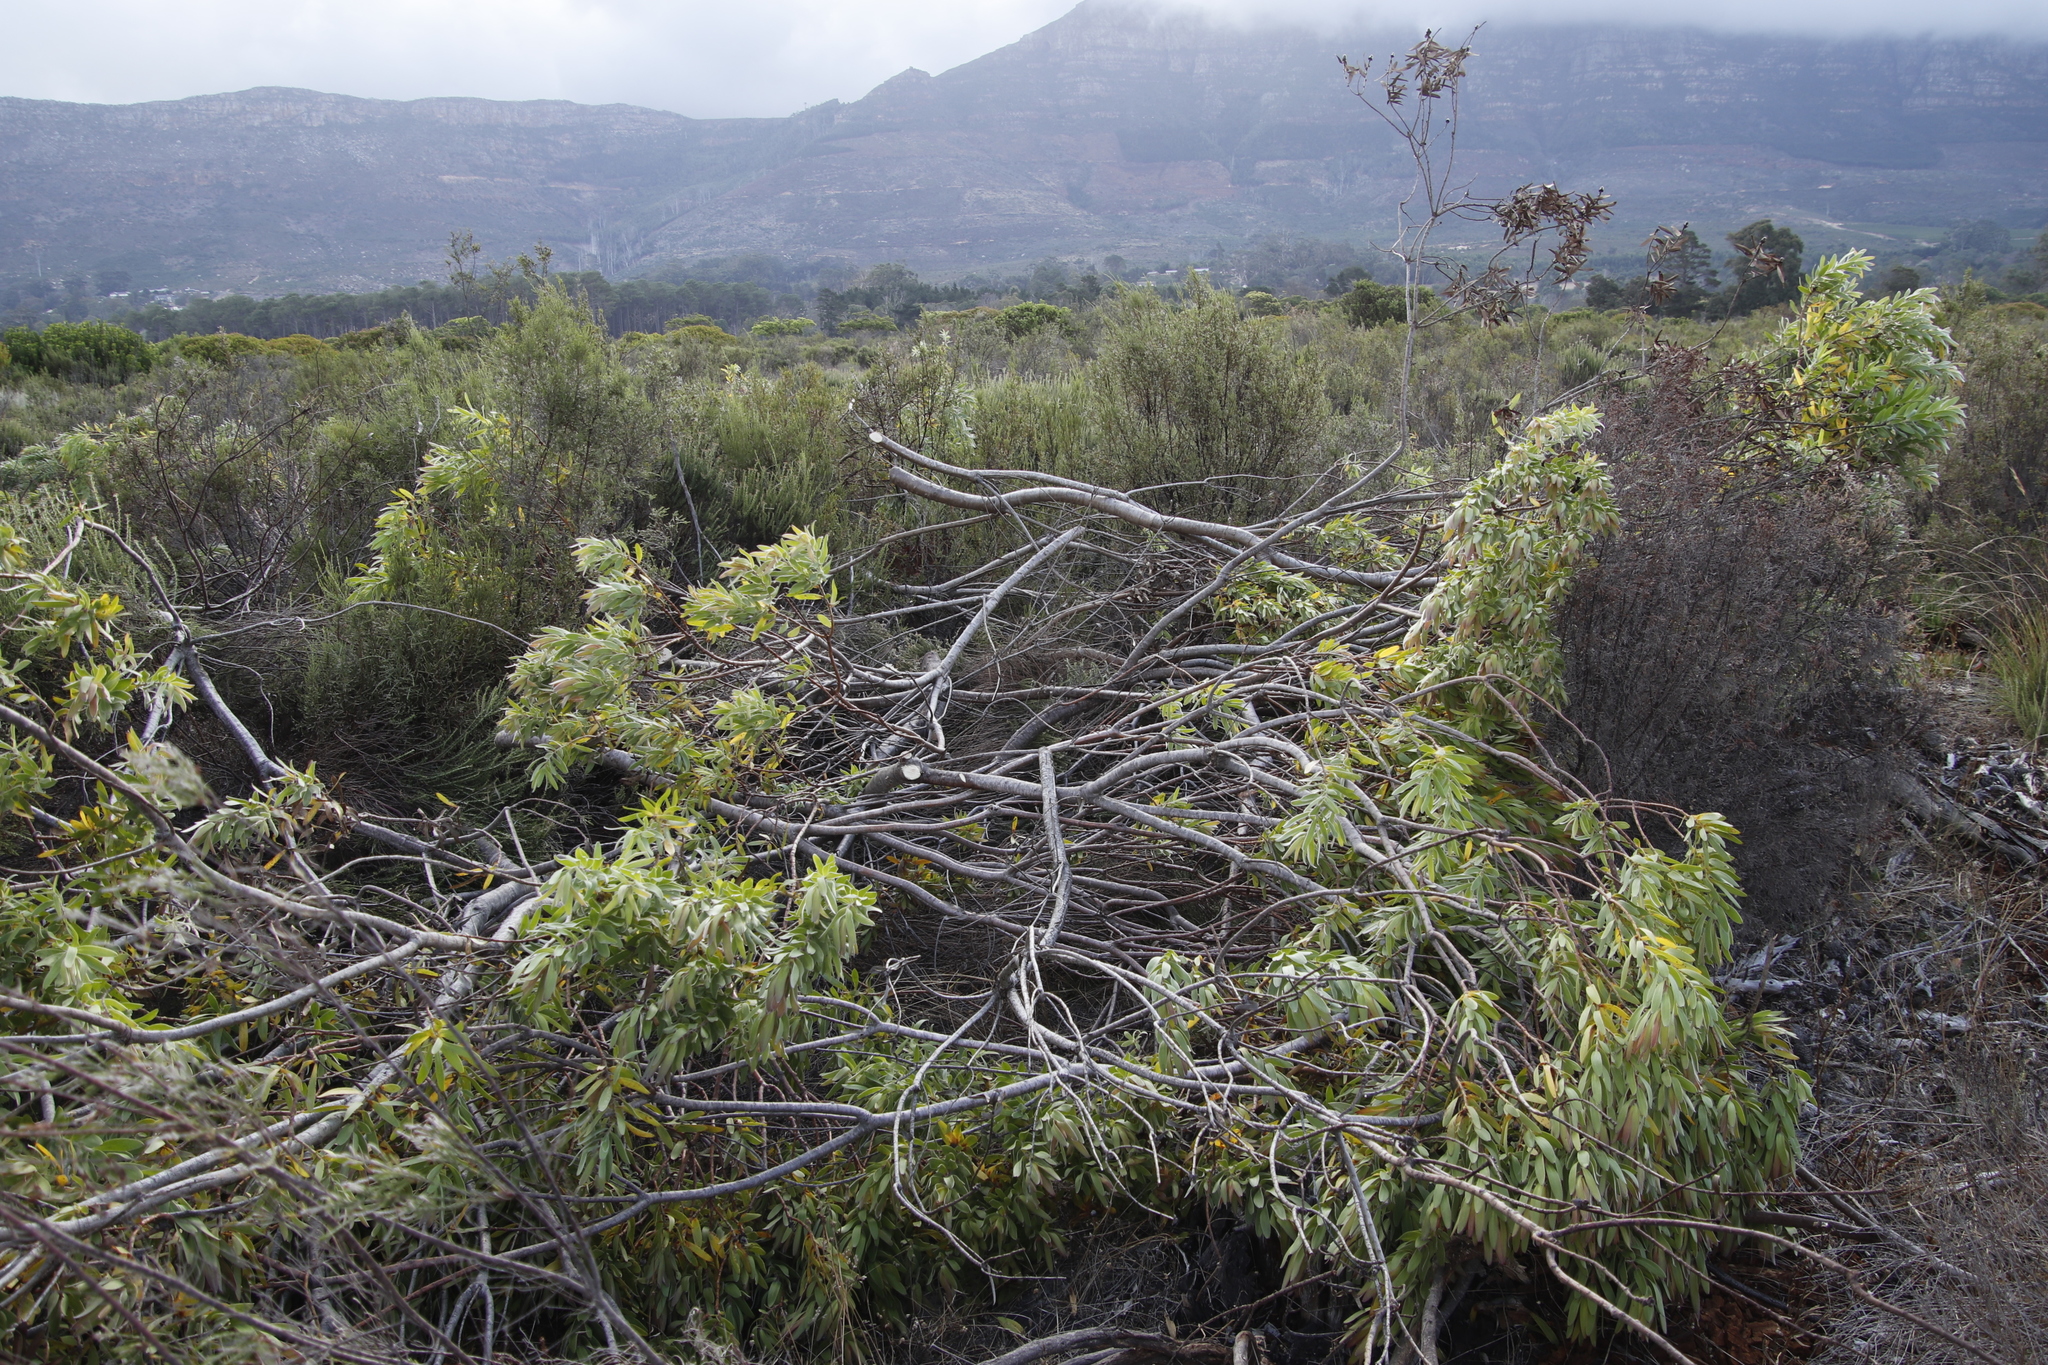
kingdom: Plantae
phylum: Tracheophyta
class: Magnoliopsida
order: Proteales
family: Proteaceae
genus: Leucadendron
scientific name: Leucadendron laureolum
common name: Golden sunshinebush
